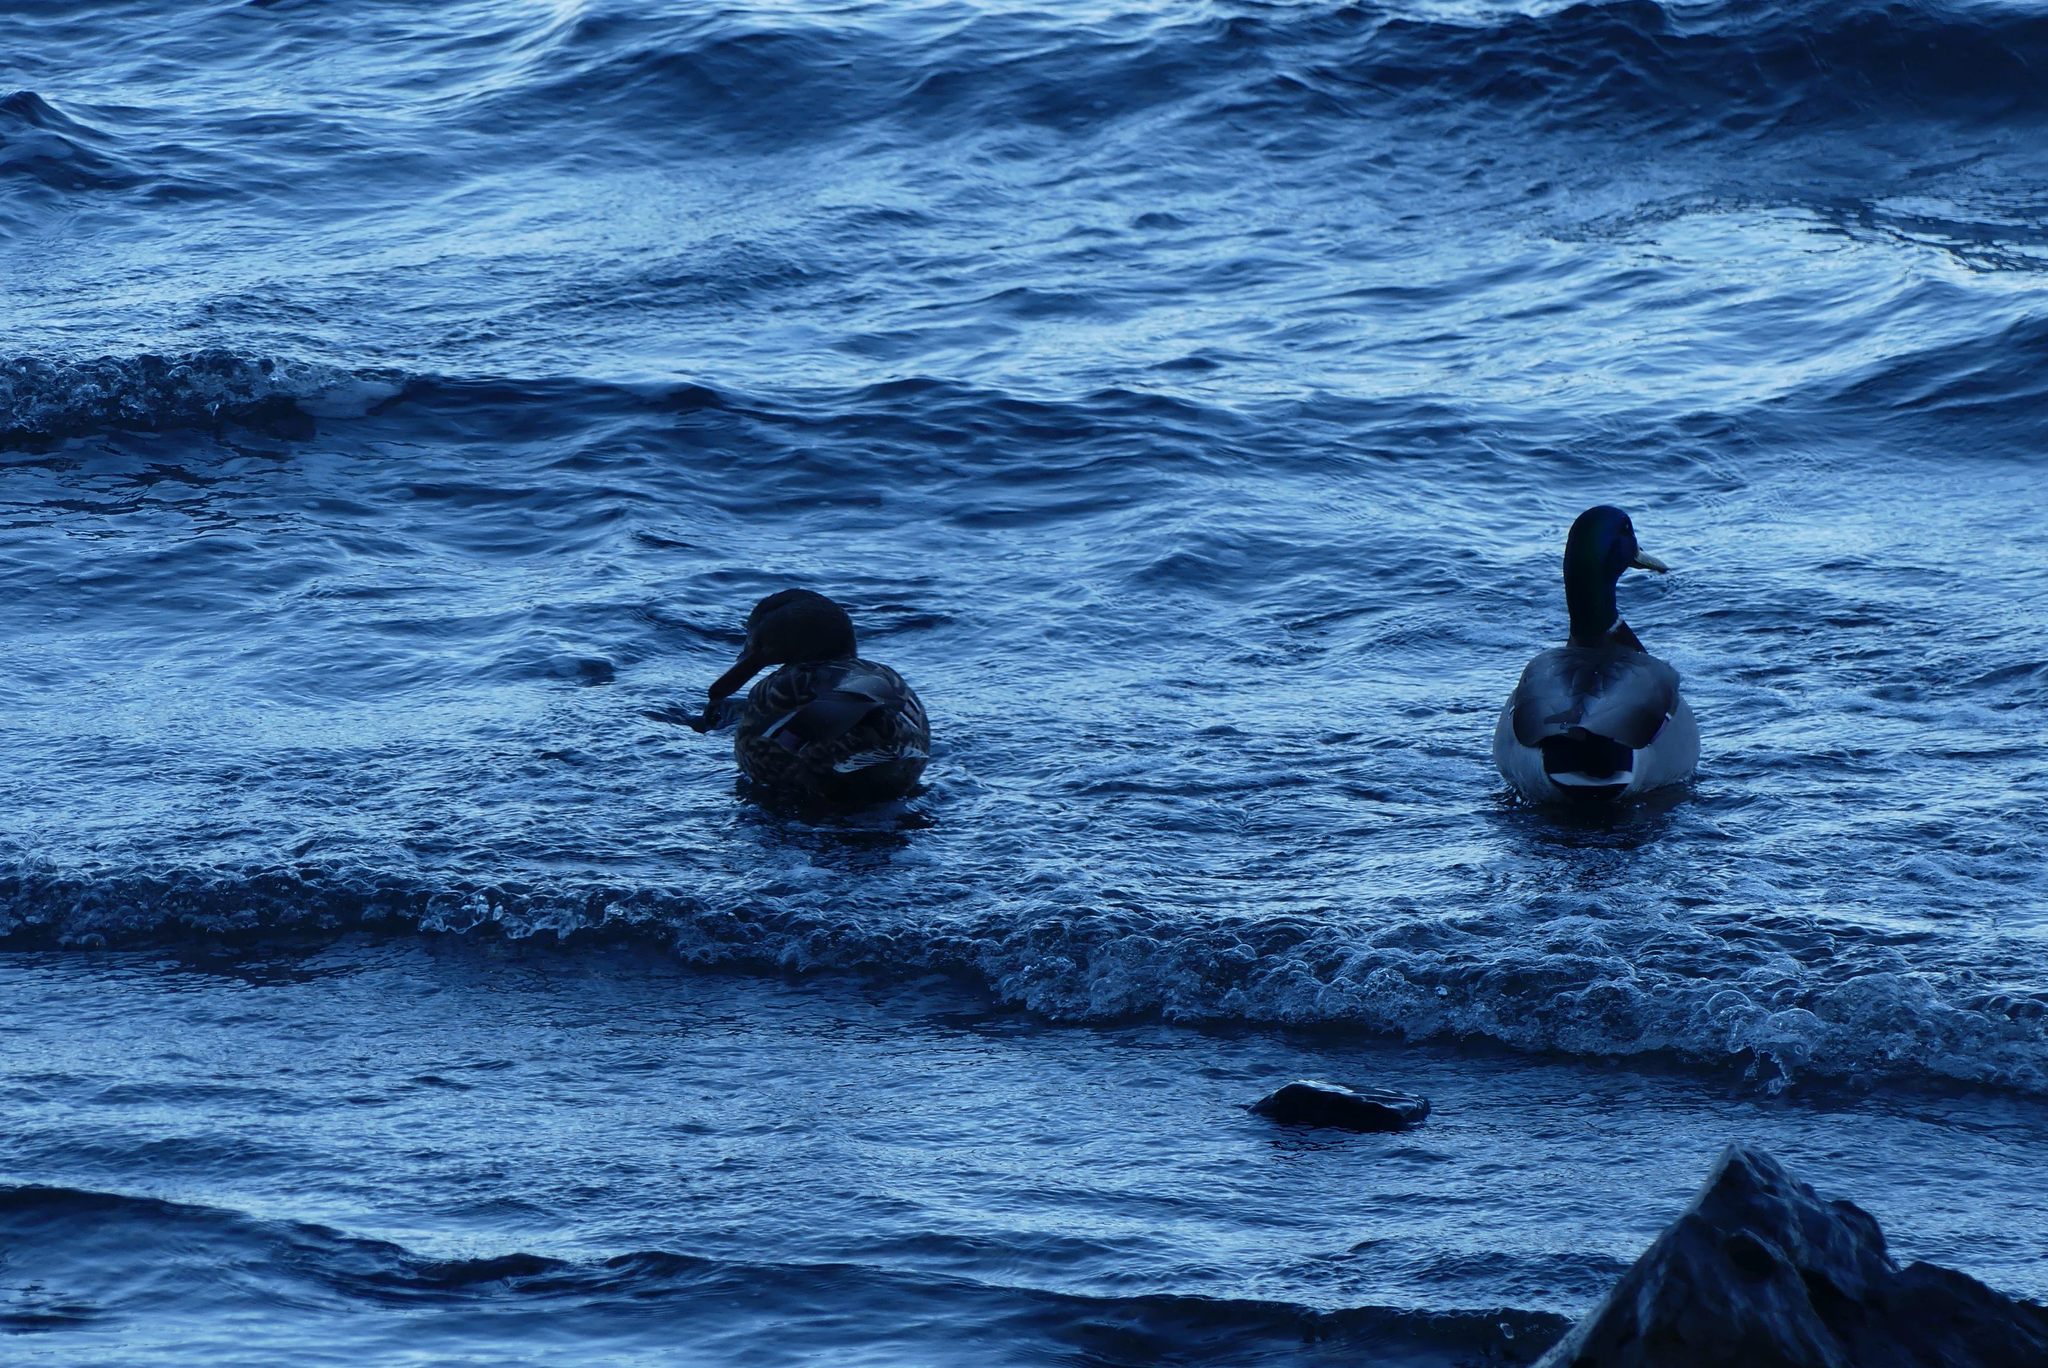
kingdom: Animalia
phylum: Chordata
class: Aves
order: Anseriformes
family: Anatidae
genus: Anas
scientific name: Anas platyrhynchos
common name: Mallard
